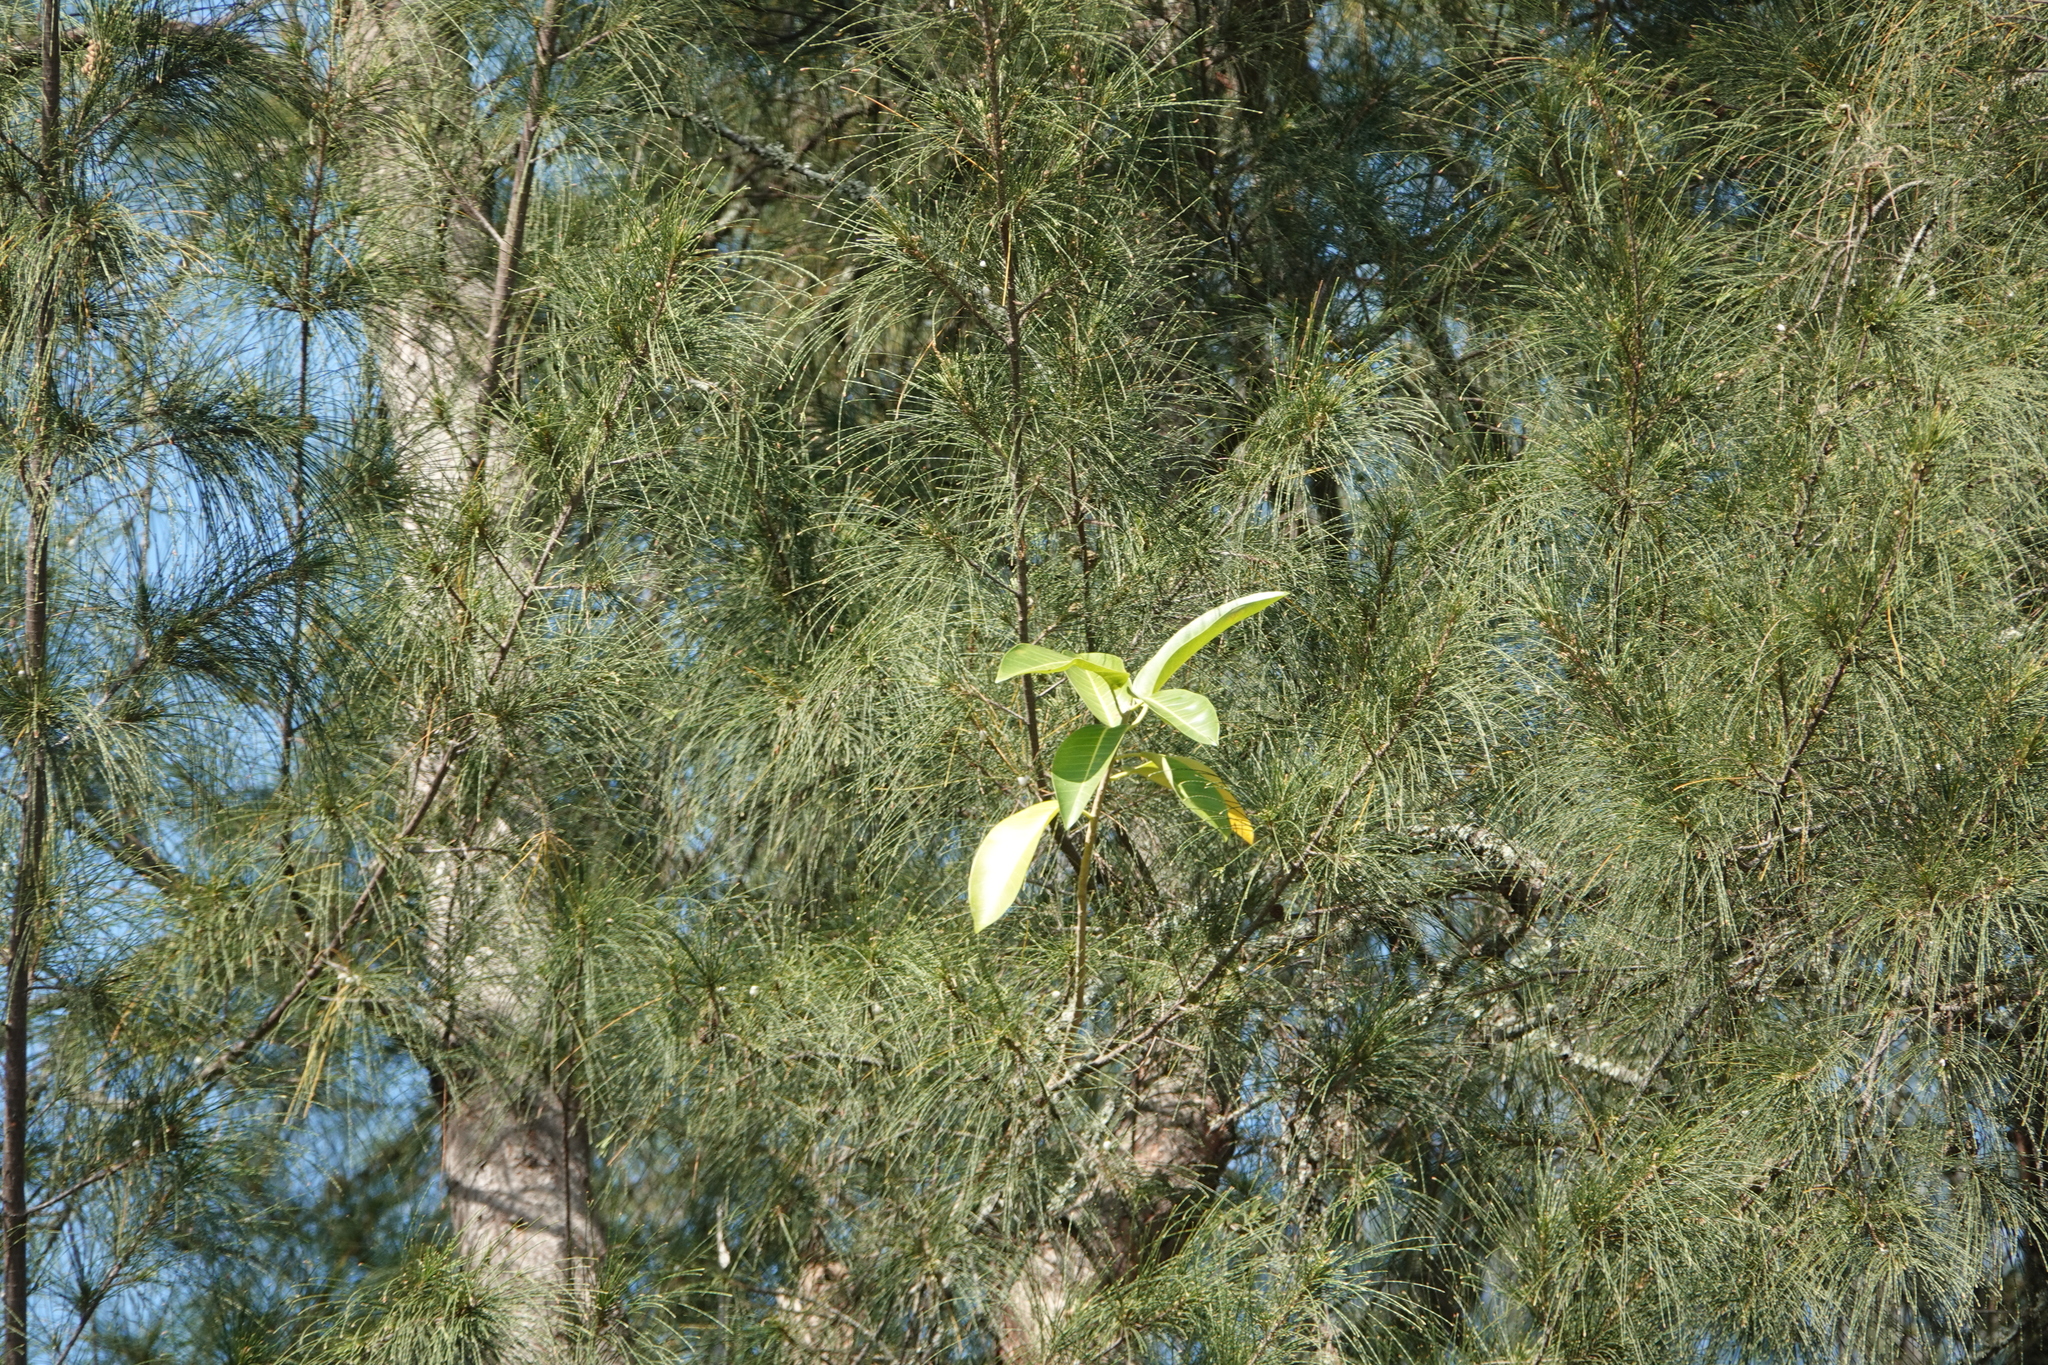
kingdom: Plantae
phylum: Tracheophyta
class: Magnoliopsida
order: Rosales
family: Moraceae
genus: Ficus
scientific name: Ficus aurea
